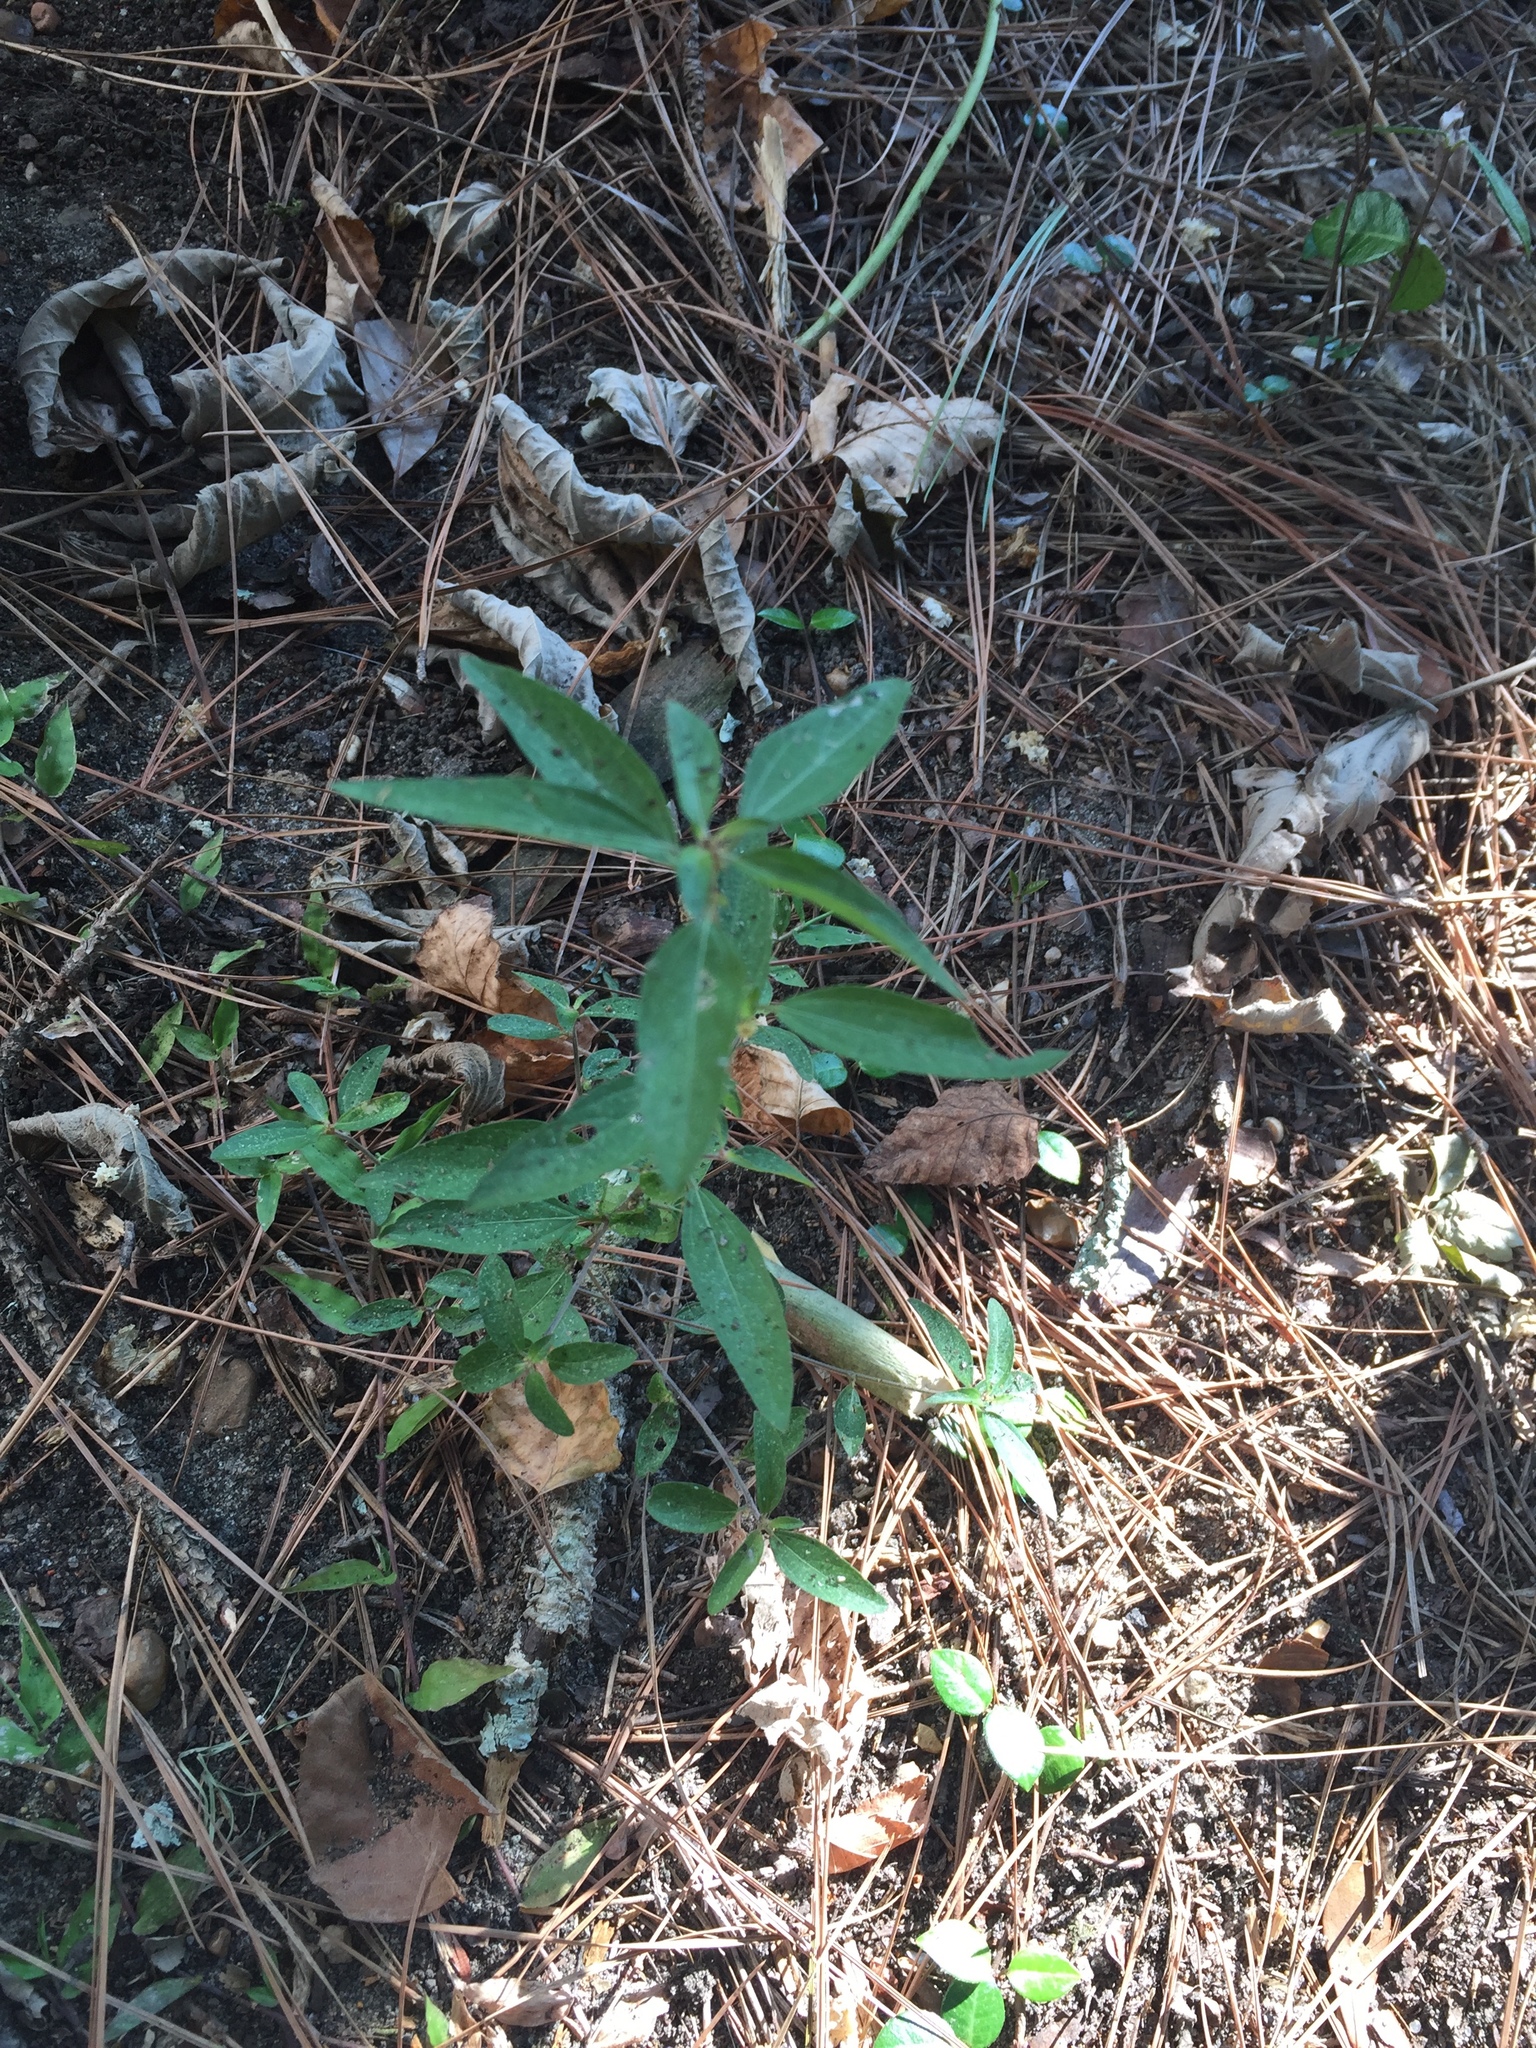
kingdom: Plantae
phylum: Tracheophyta
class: Magnoliopsida
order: Malpighiales
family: Euphorbiaceae
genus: Acalypha
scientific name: Acalypha gracilens
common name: Slender three-seeded mercury
